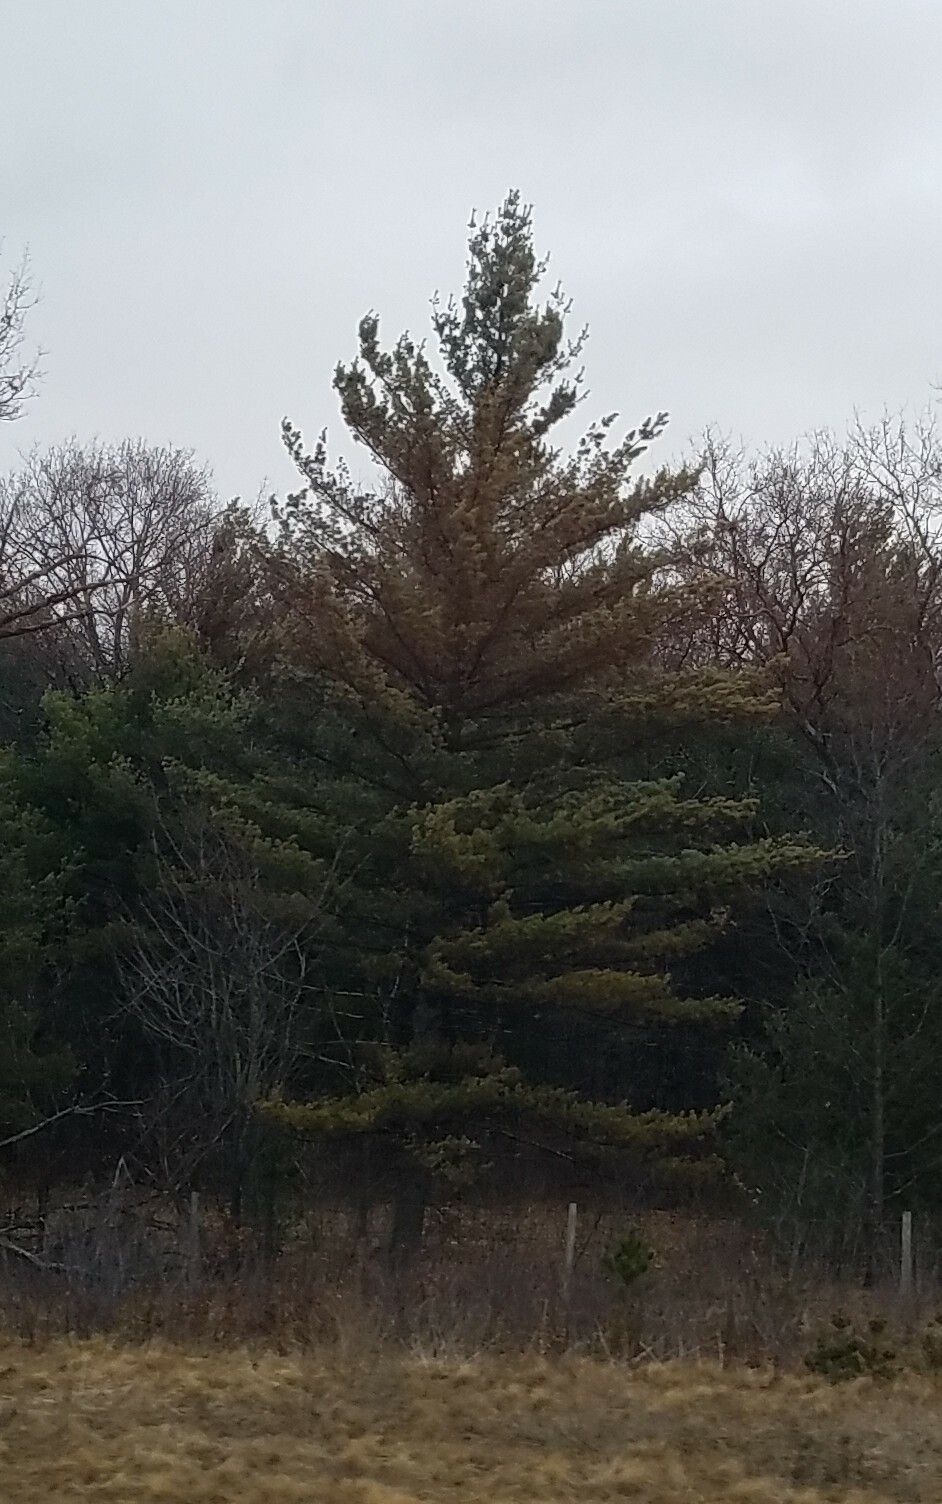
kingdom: Plantae
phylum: Tracheophyta
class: Pinopsida
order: Pinales
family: Pinaceae
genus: Pinus
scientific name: Pinus strobus
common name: Weymouth pine
